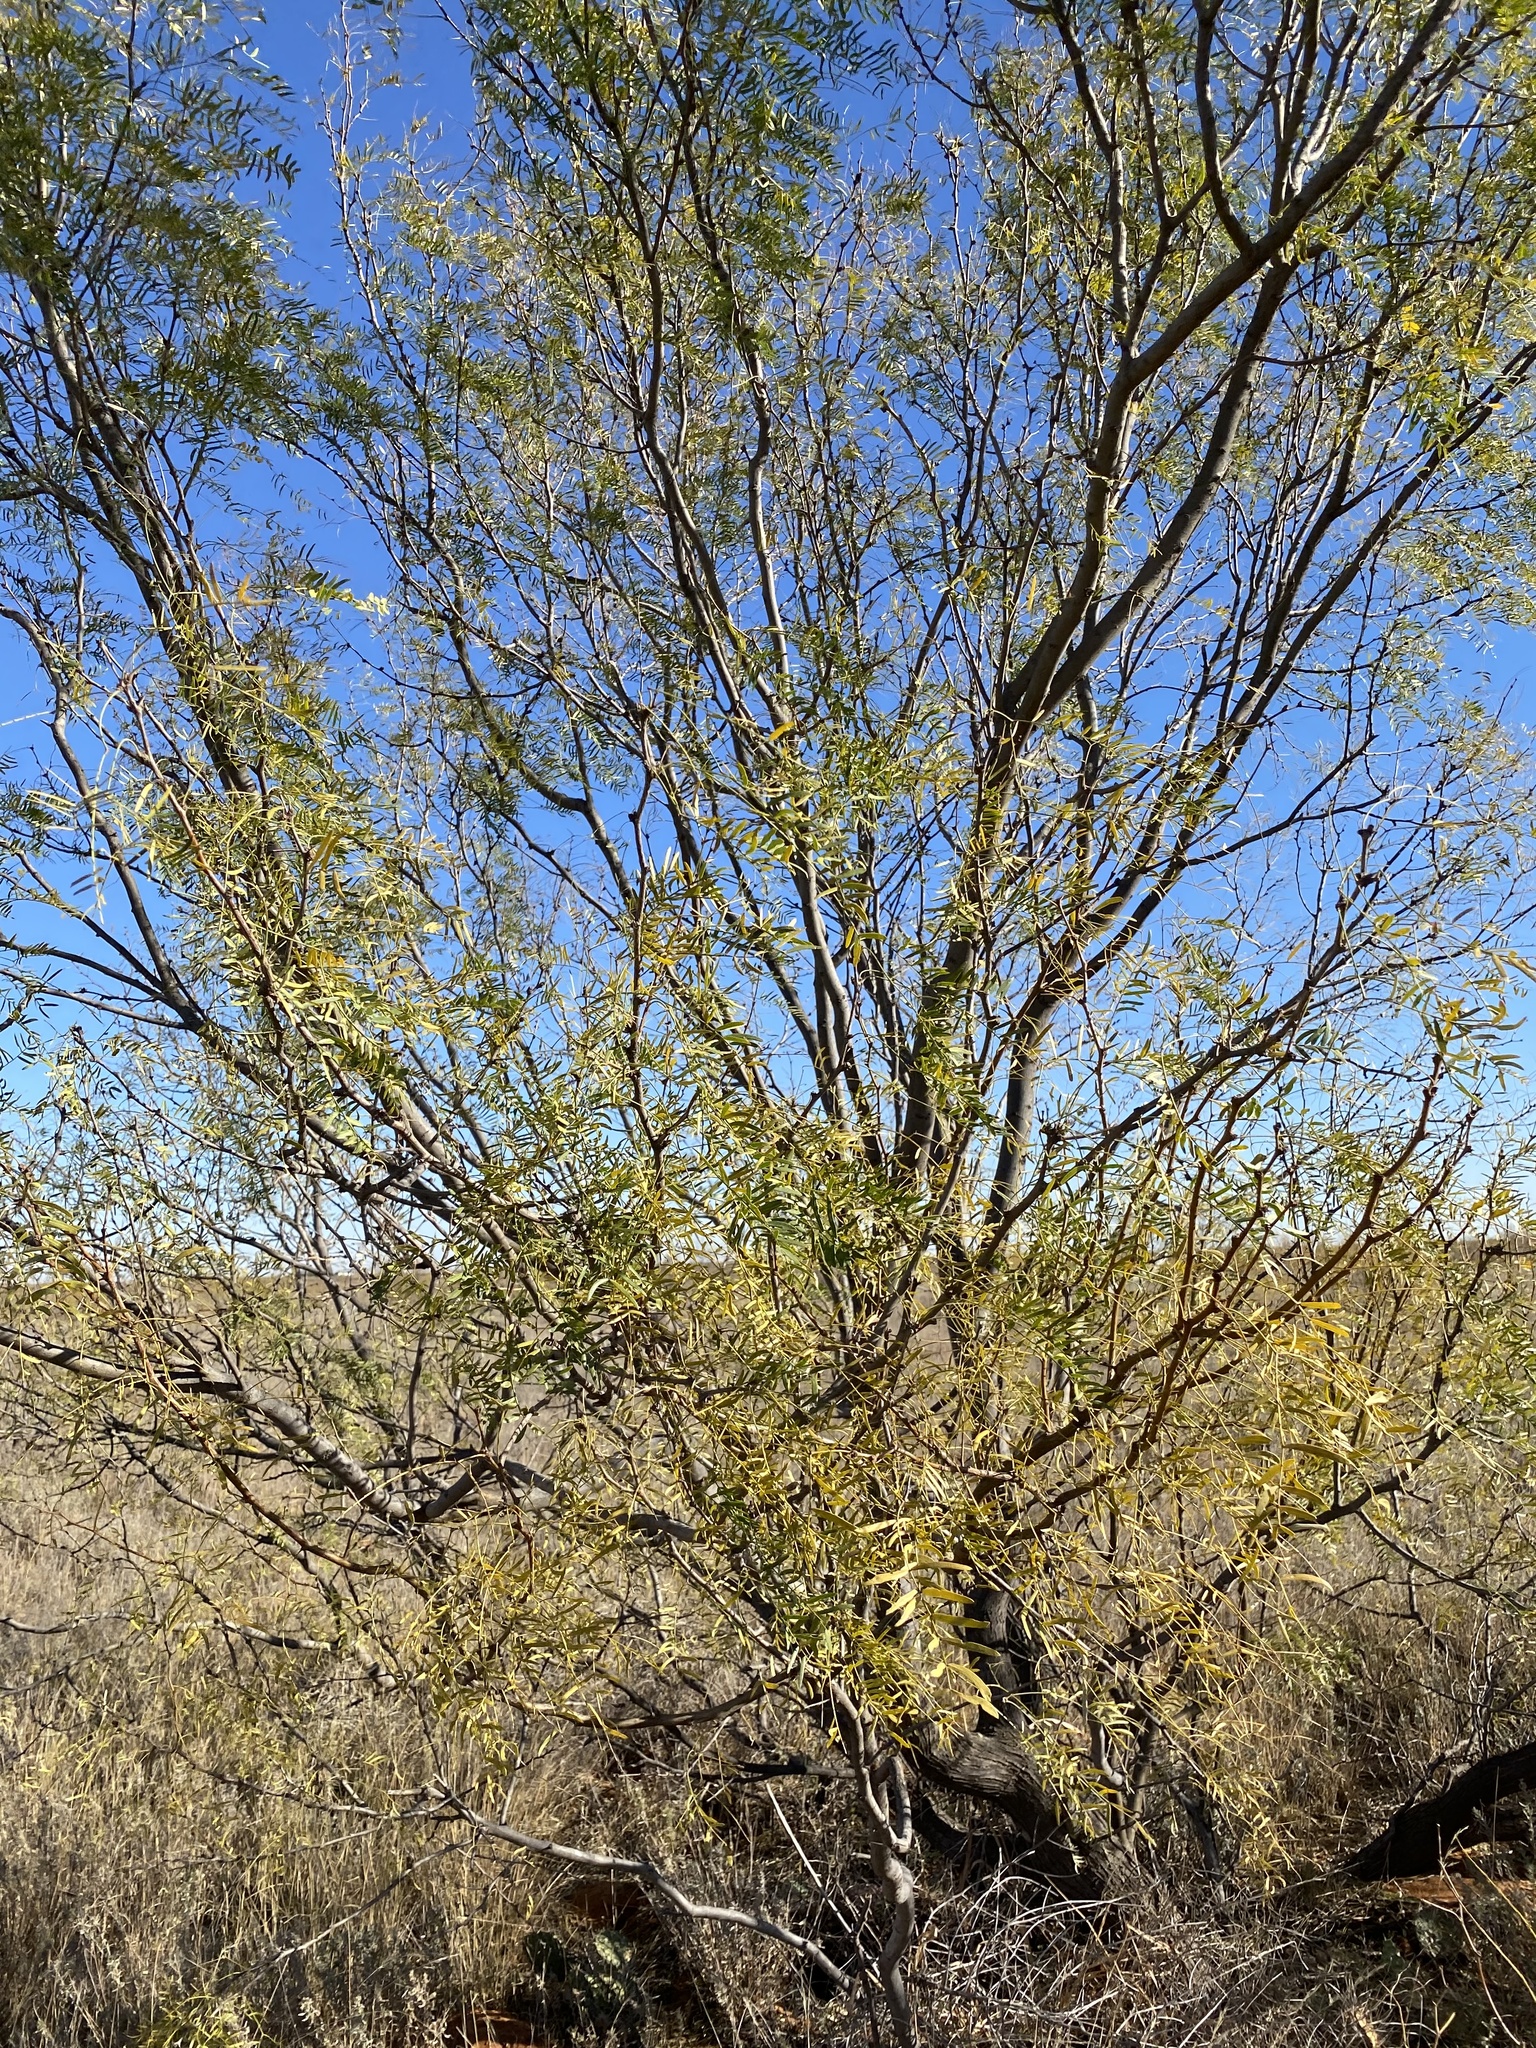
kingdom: Plantae
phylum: Tracheophyta
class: Magnoliopsida
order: Fabales
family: Fabaceae
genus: Prosopis
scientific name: Prosopis glandulosa
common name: Honey mesquite
